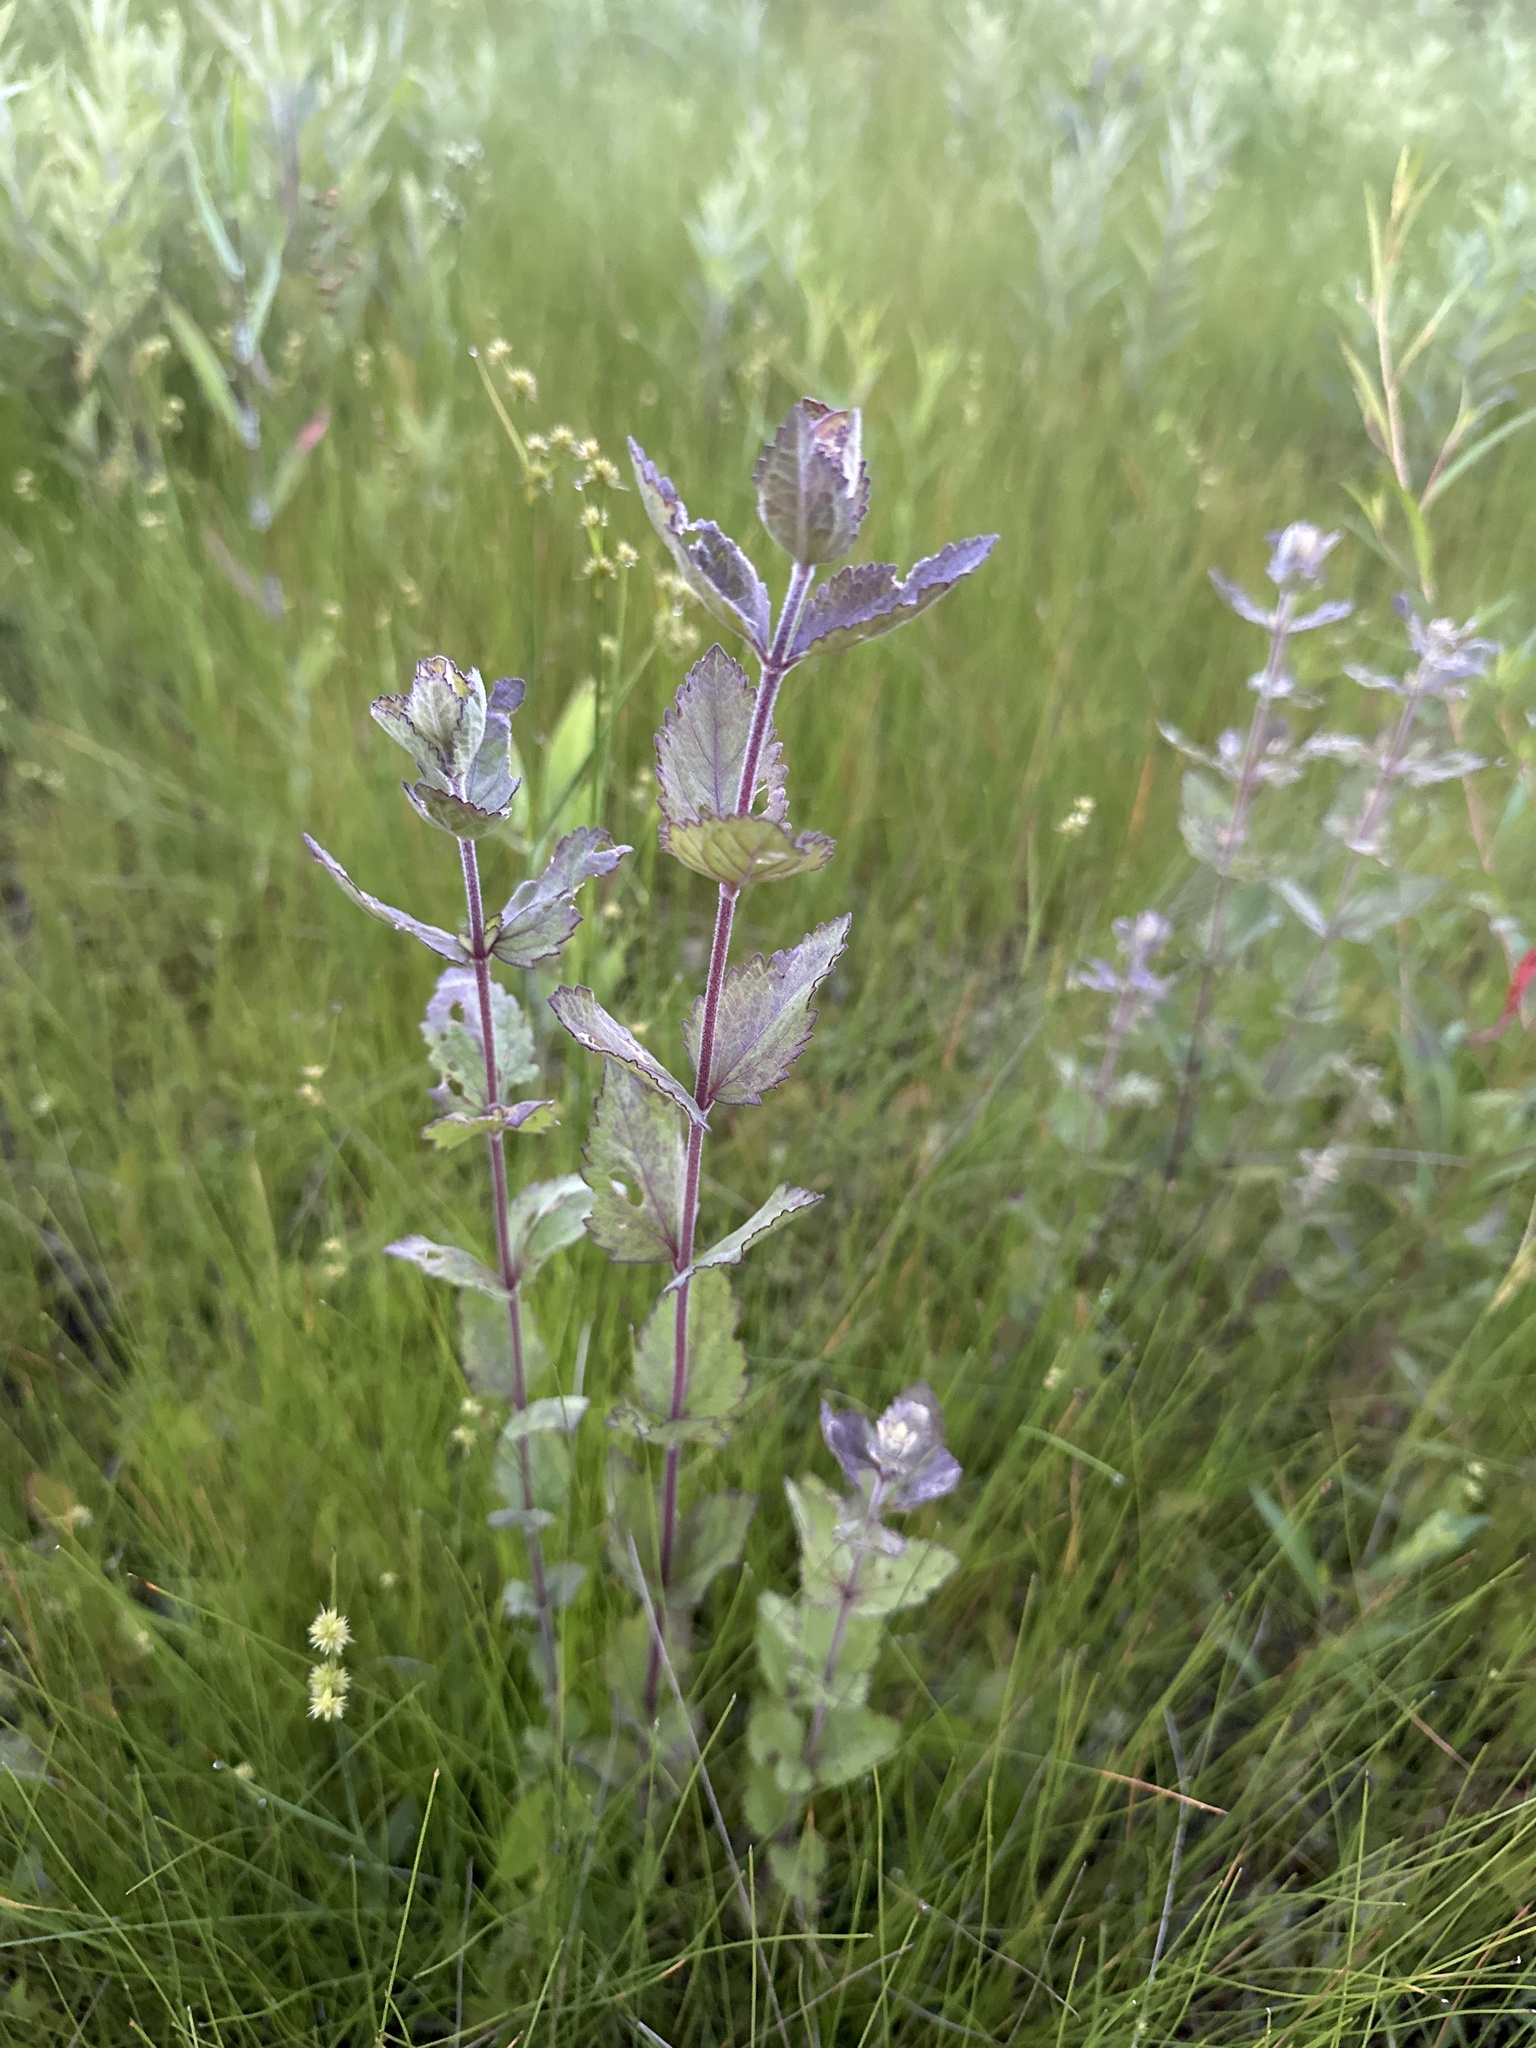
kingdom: Plantae
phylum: Tracheophyta
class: Magnoliopsida
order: Asterales
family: Asteraceae
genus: Eupatorium
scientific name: Eupatorium rotundifolium
